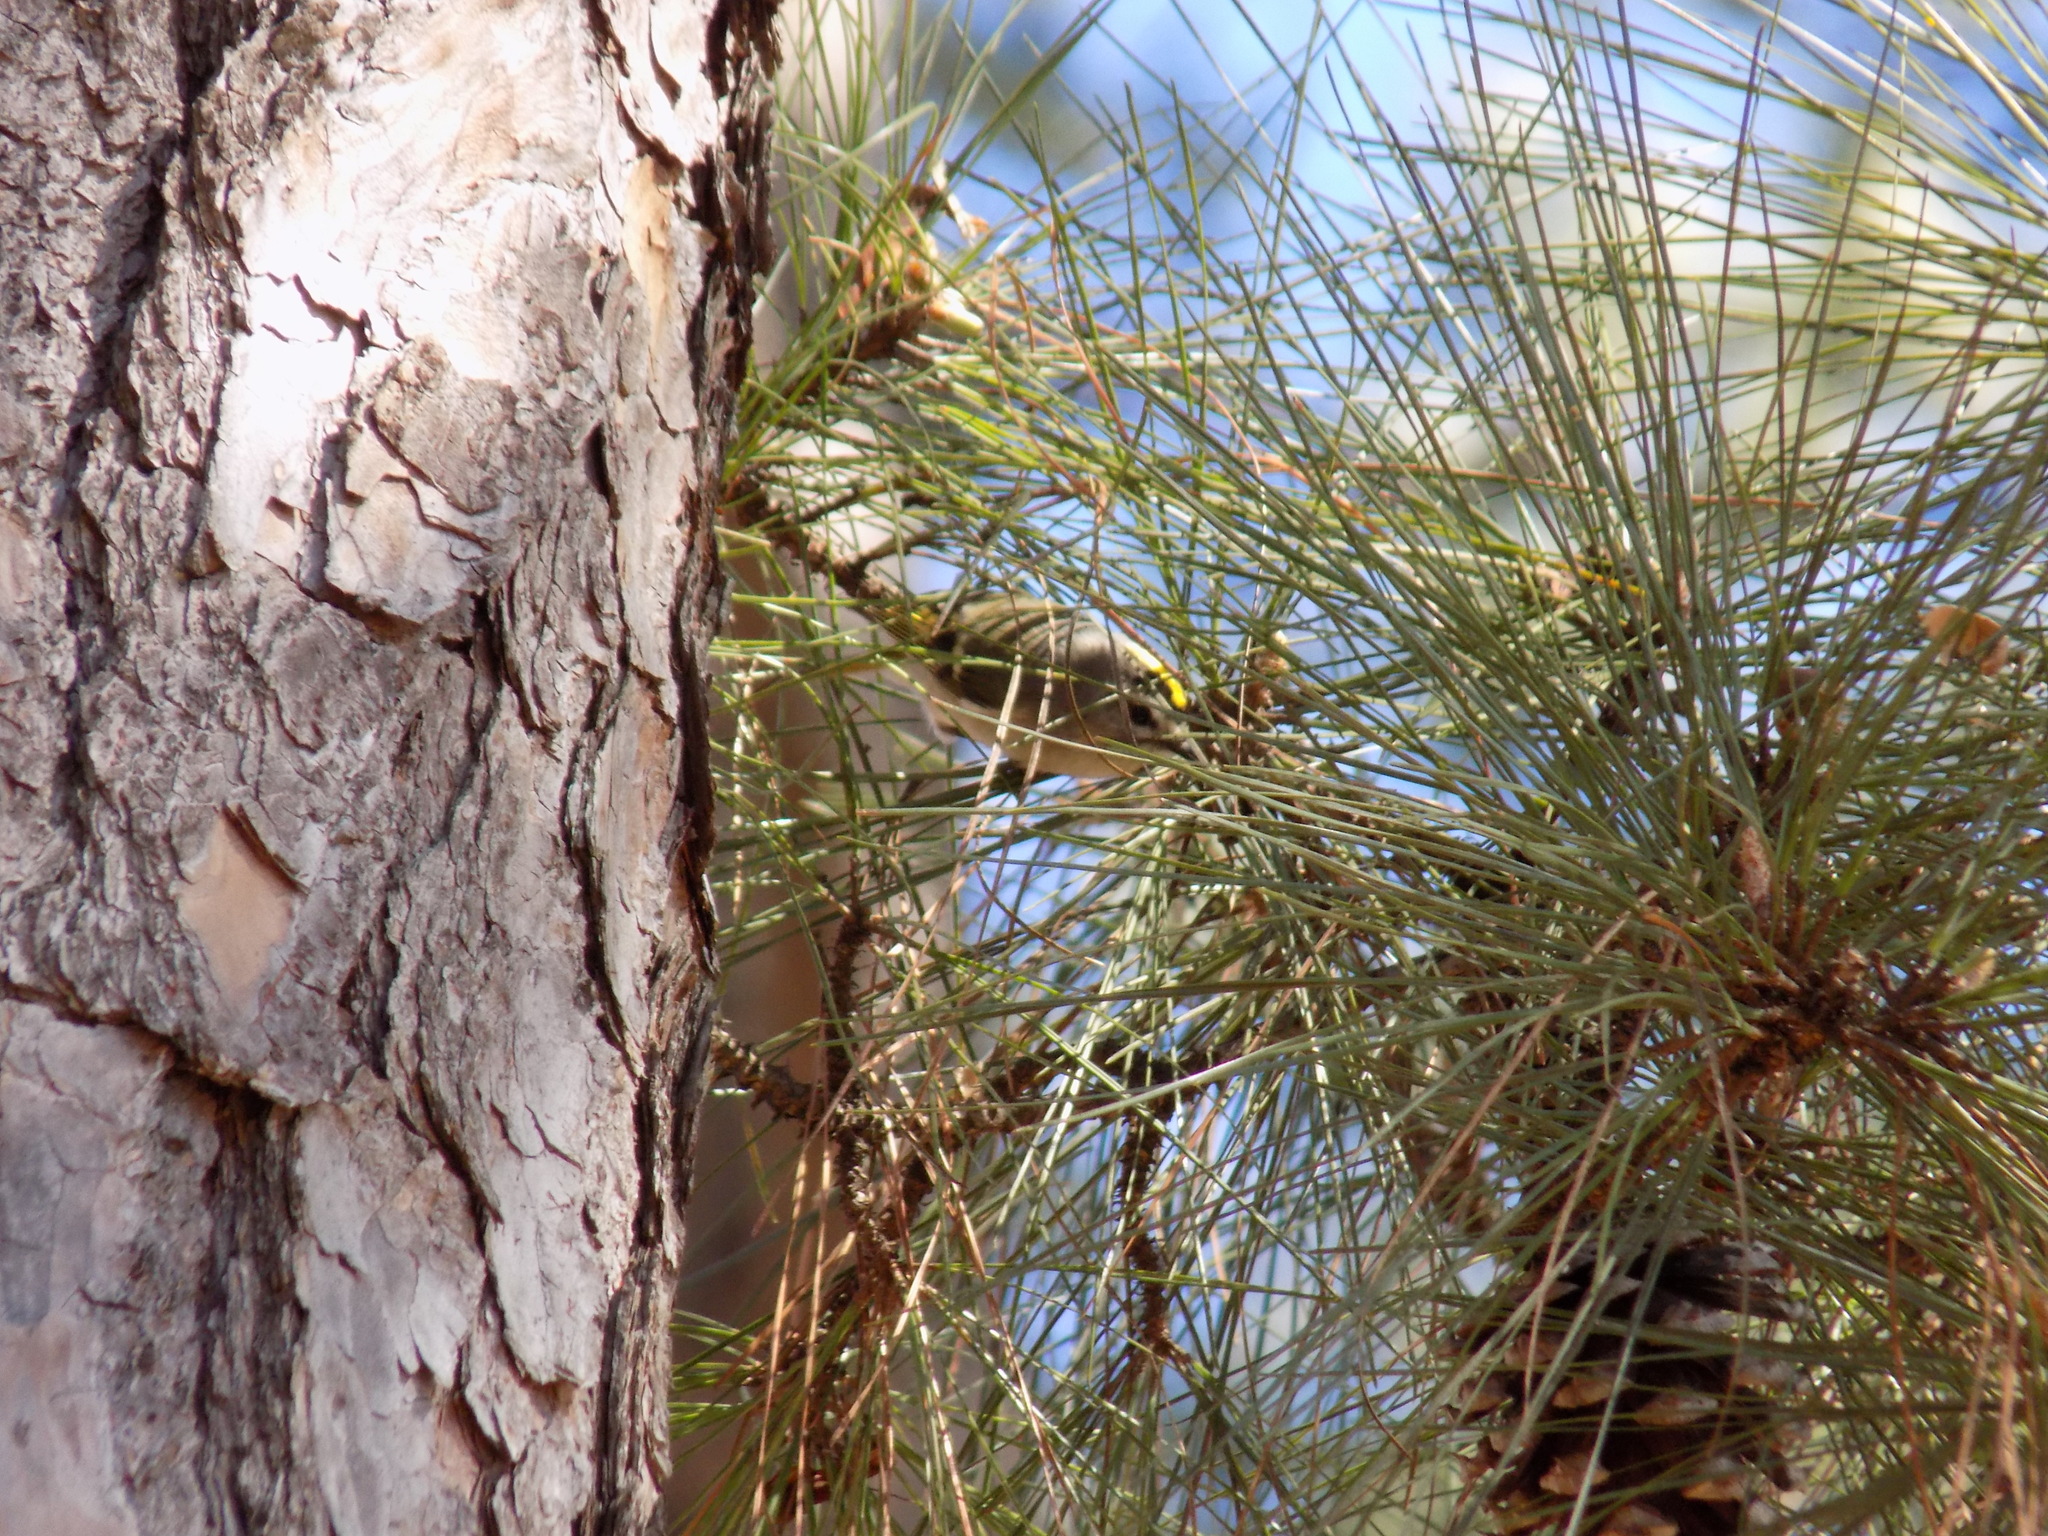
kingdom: Animalia
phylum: Chordata
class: Aves
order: Passeriformes
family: Regulidae
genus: Regulus
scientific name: Regulus satrapa
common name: Golden-crowned kinglet
